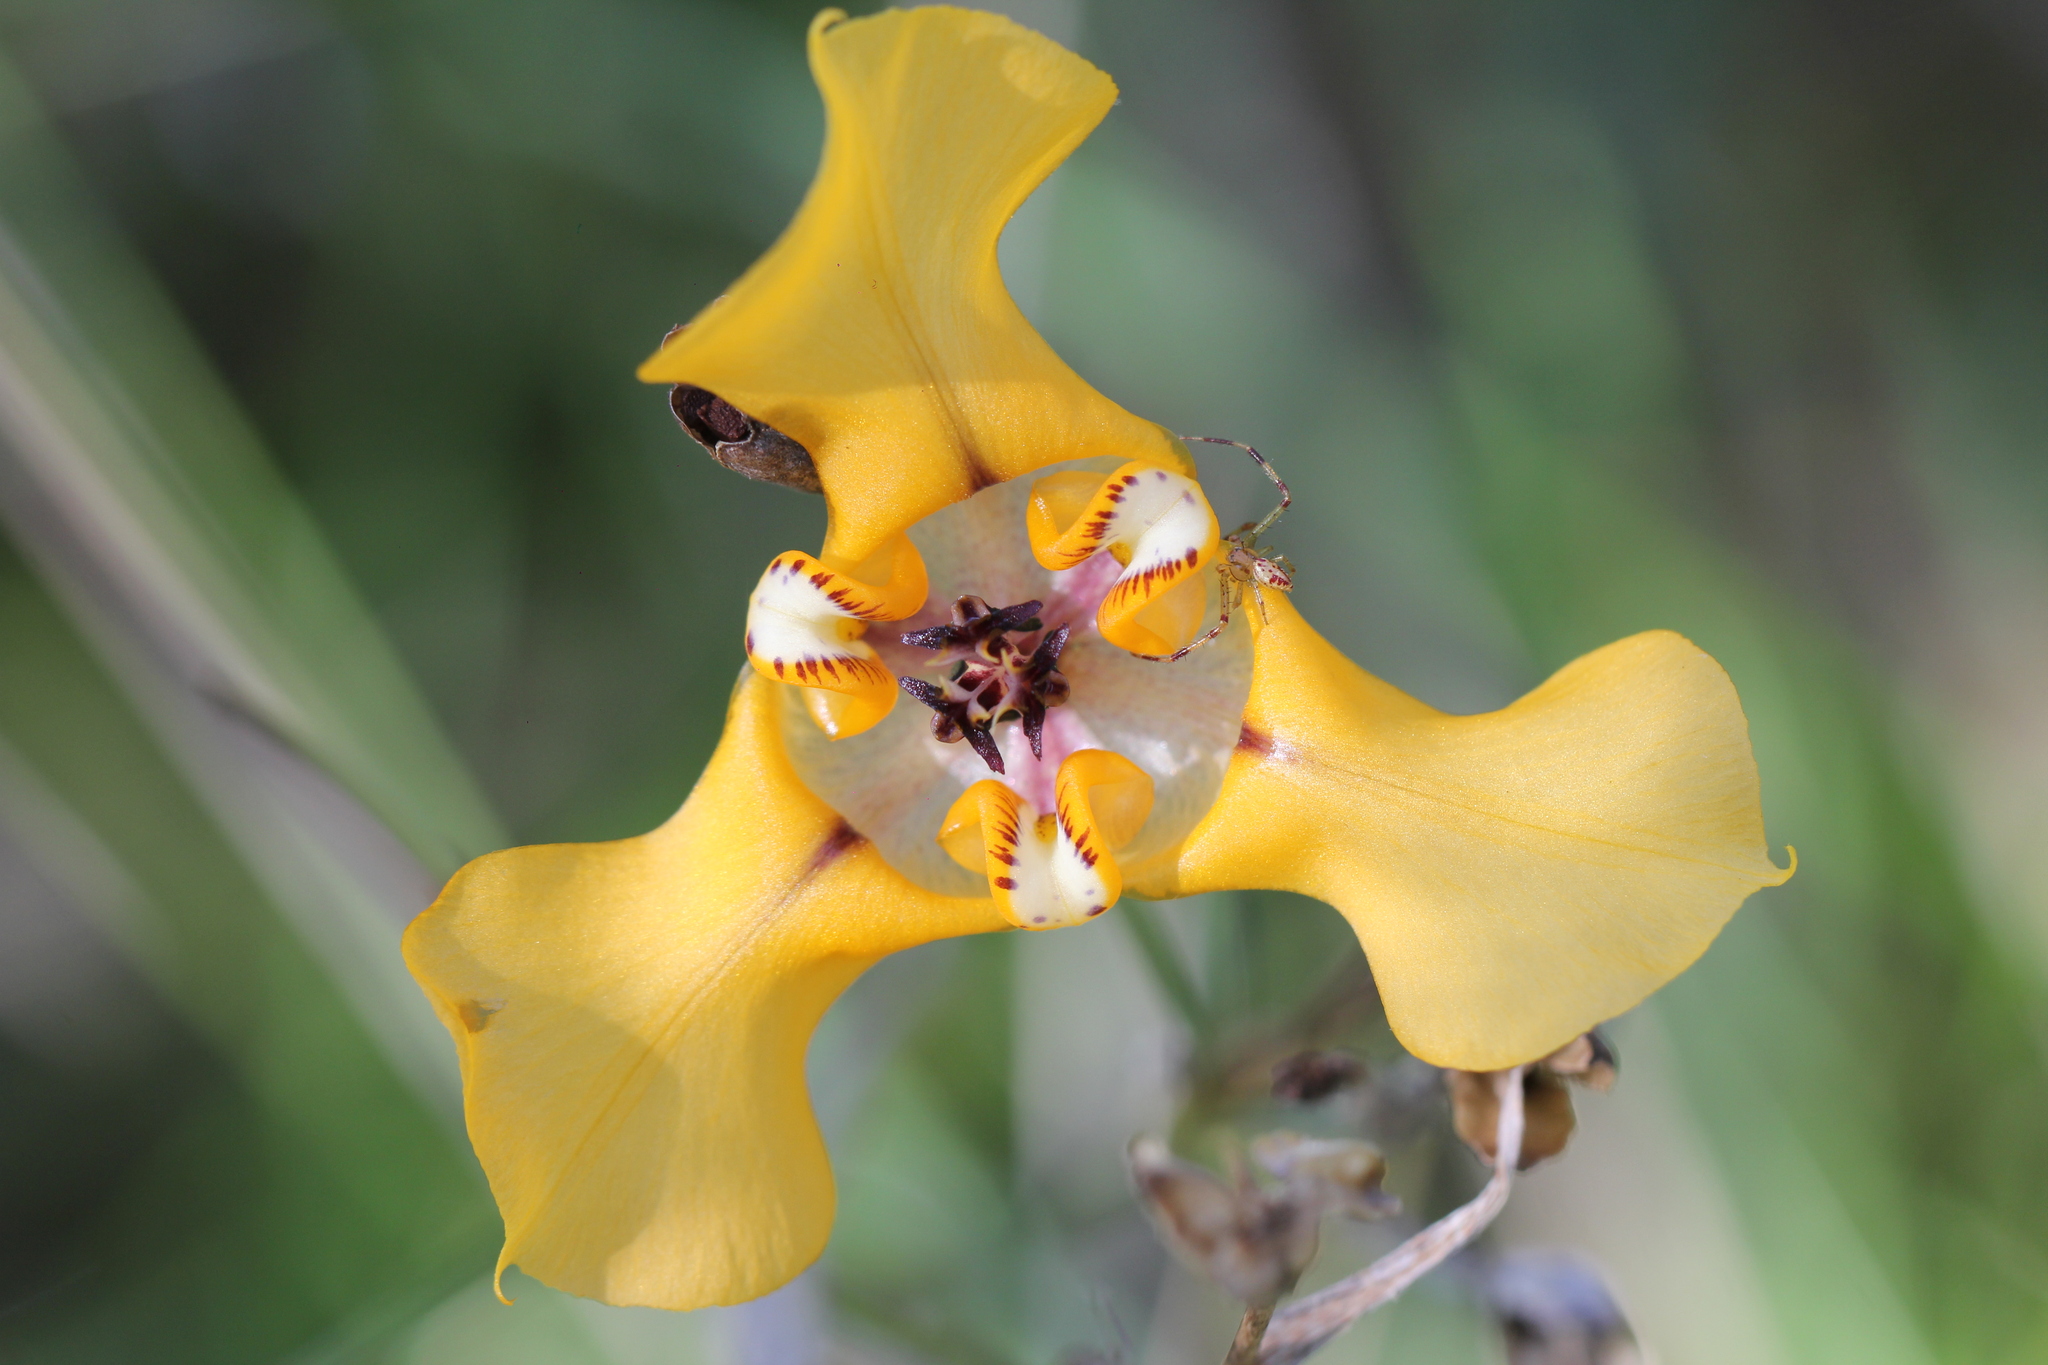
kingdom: Animalia
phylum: Arthropoda
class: Arachnida
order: Araneae
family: Thomisidae
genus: Misumenops
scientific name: Misumenops
